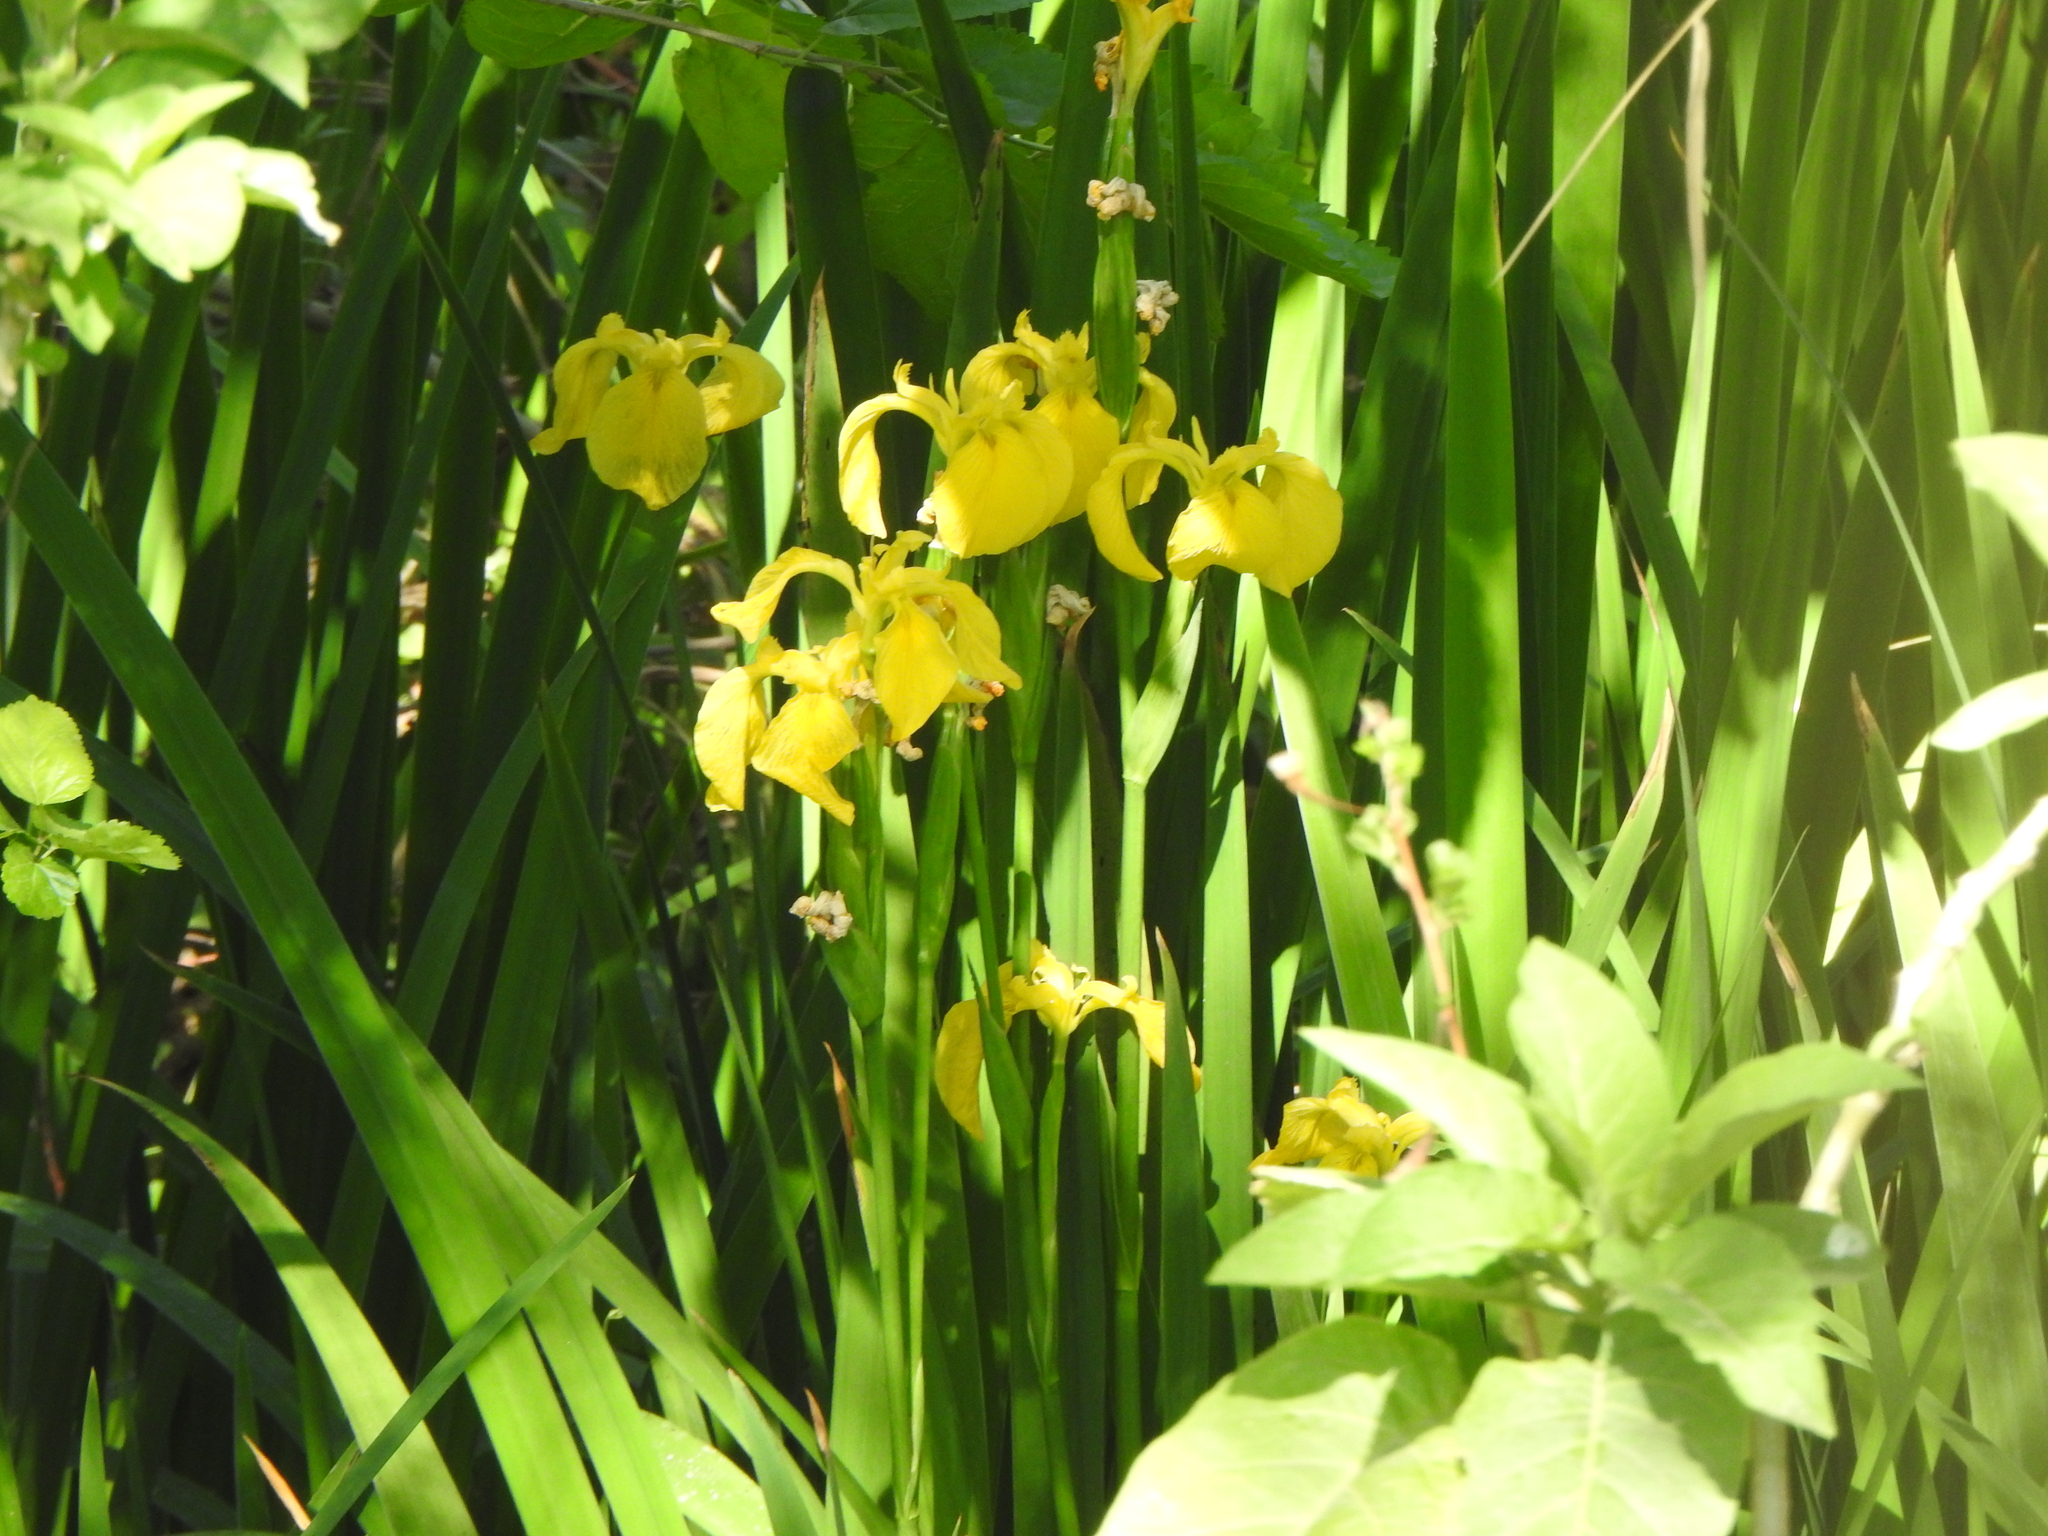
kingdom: Plantae
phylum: Tracheophyta
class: Liliopsida
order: Asparagales
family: Iridaceae
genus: Iris
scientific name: Iris pseudacorus
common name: Yellow flag
